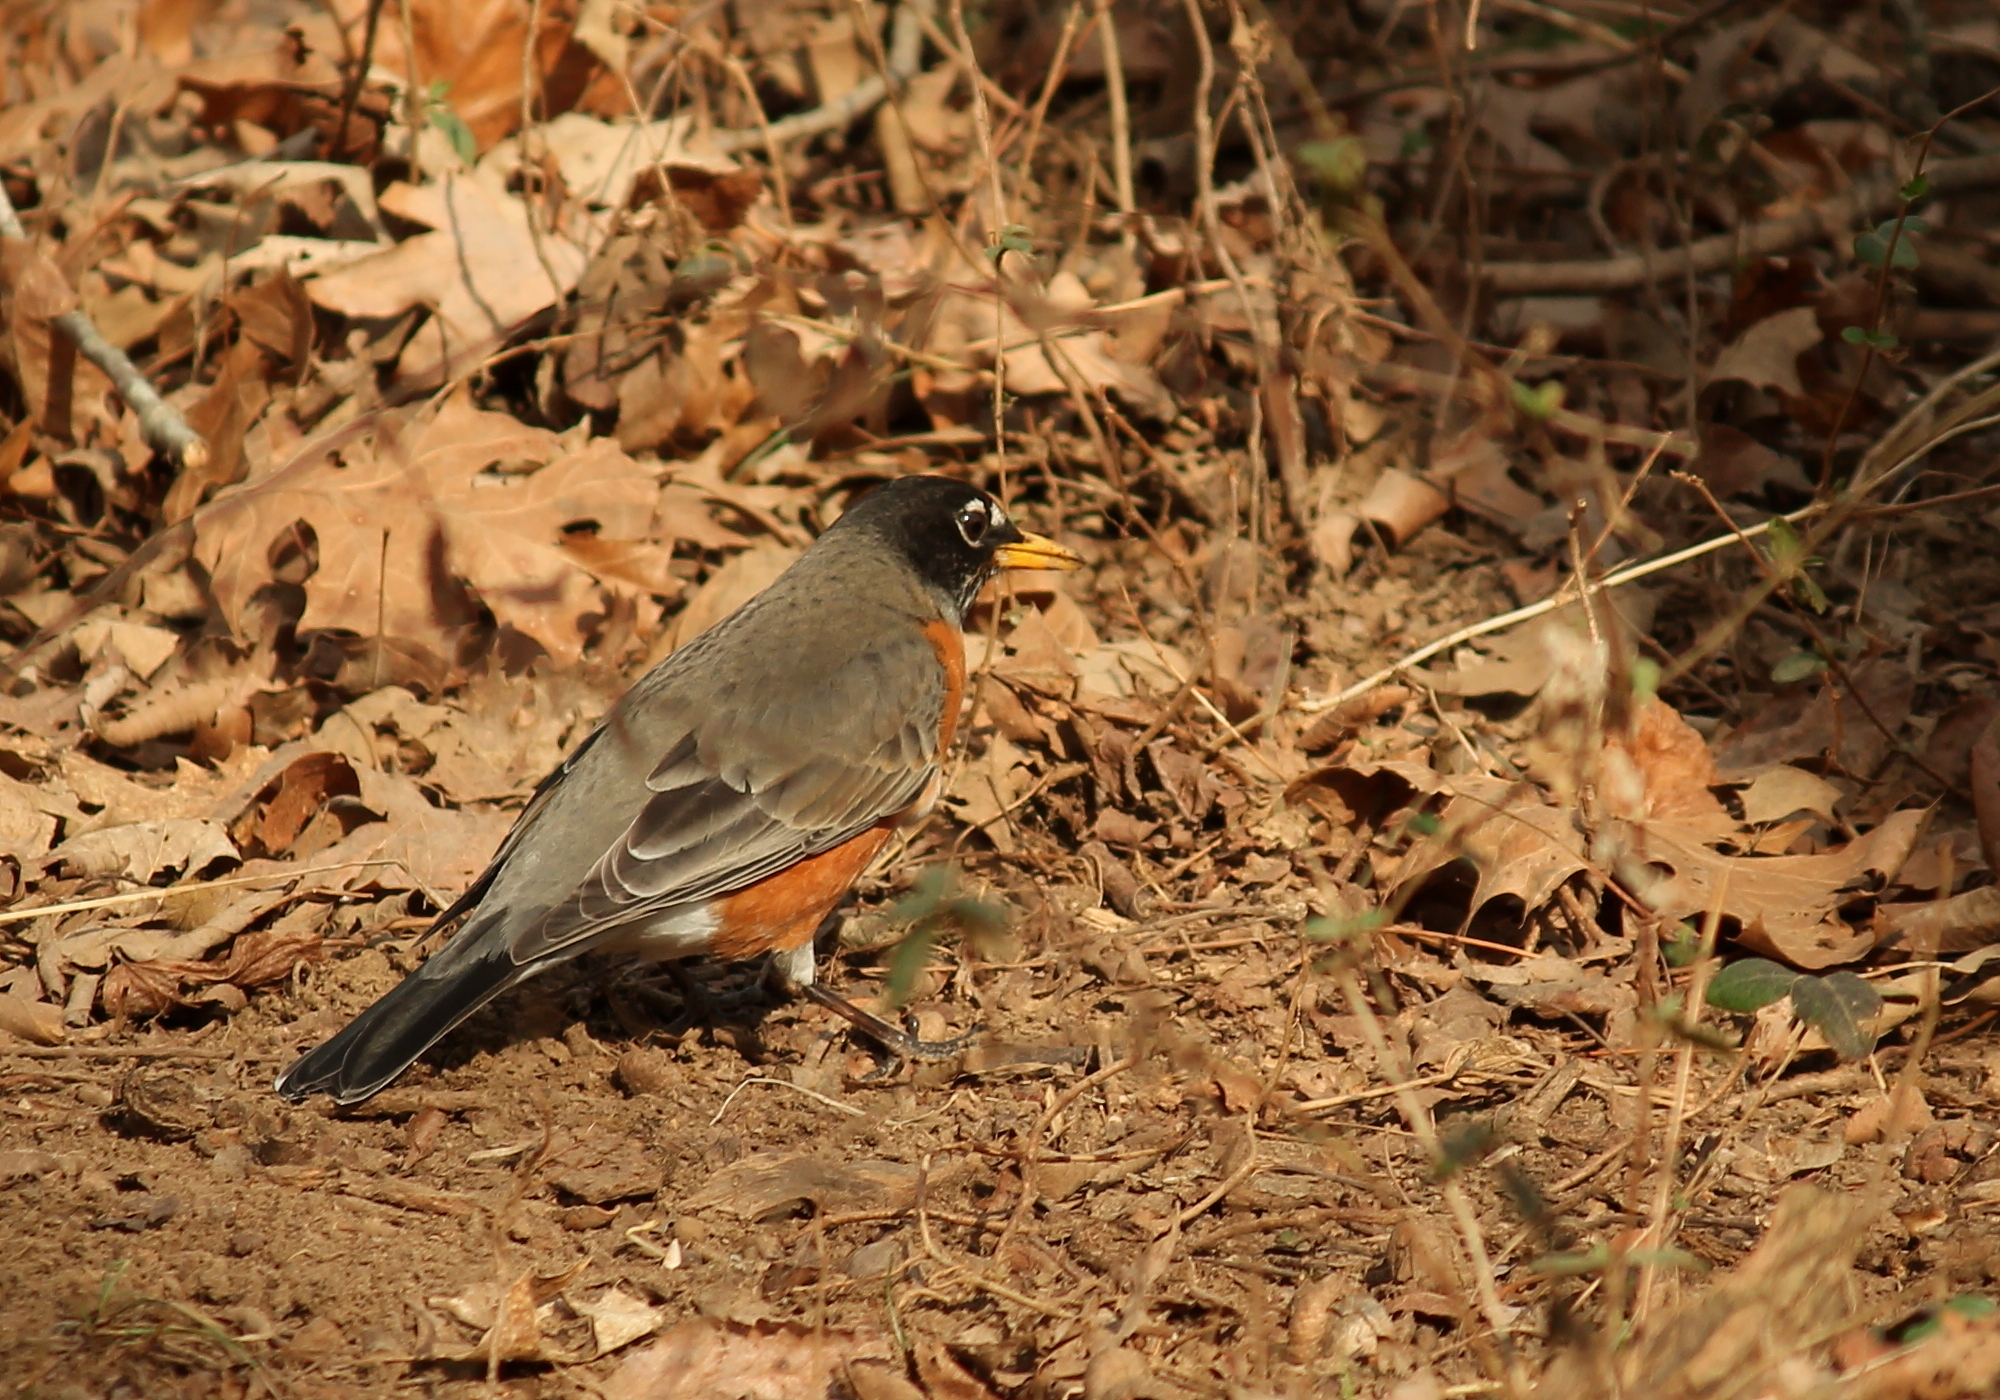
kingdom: Animalia
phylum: Chordata
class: Aves
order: Passeriformes
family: Turdidae
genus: Turdus
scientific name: Turdus migratorius
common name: American robin
